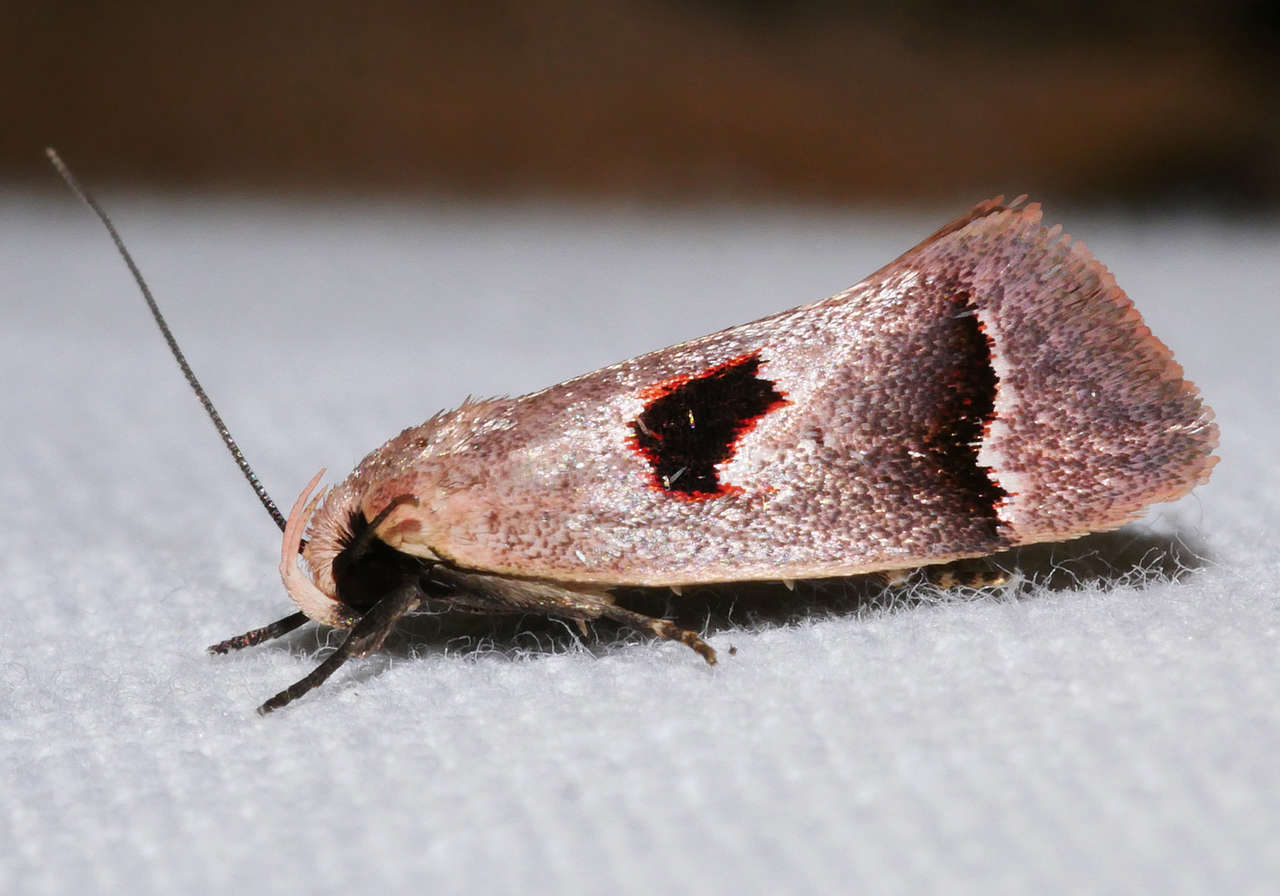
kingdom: Animalia
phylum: Arthropoda
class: Insecta
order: Lepidoptera
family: Oecophoridae
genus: Acanthodela
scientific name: Acanthodela erythrosema
